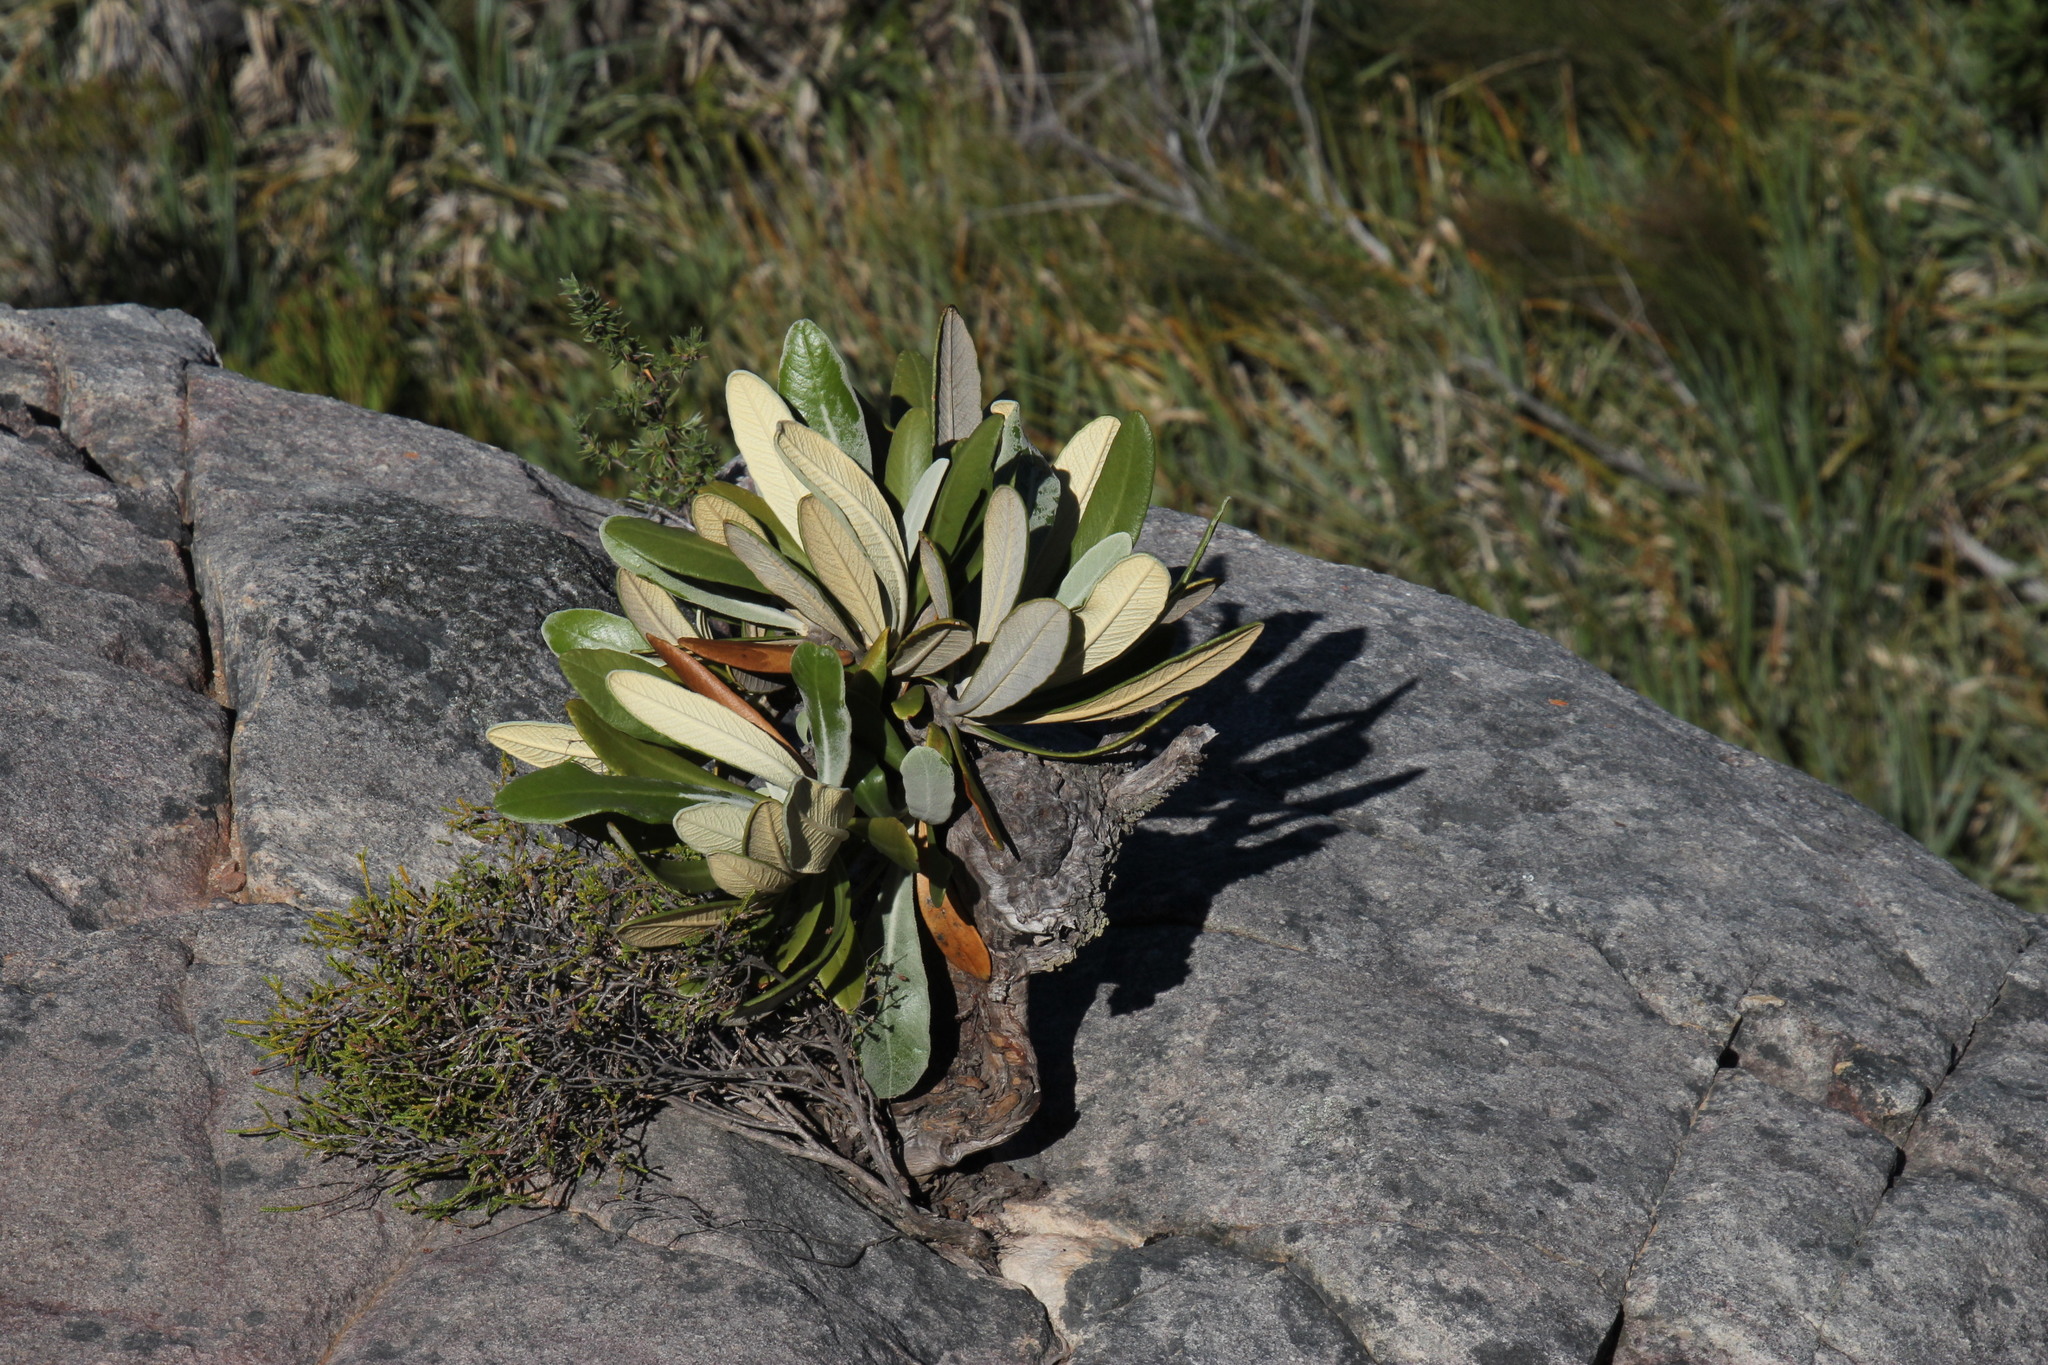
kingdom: Plantae
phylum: Tracheophyta
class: Magnoliopsida
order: Asterales
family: Asteraceae
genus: Oldenburgia
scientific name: Oldenburgia papionum
